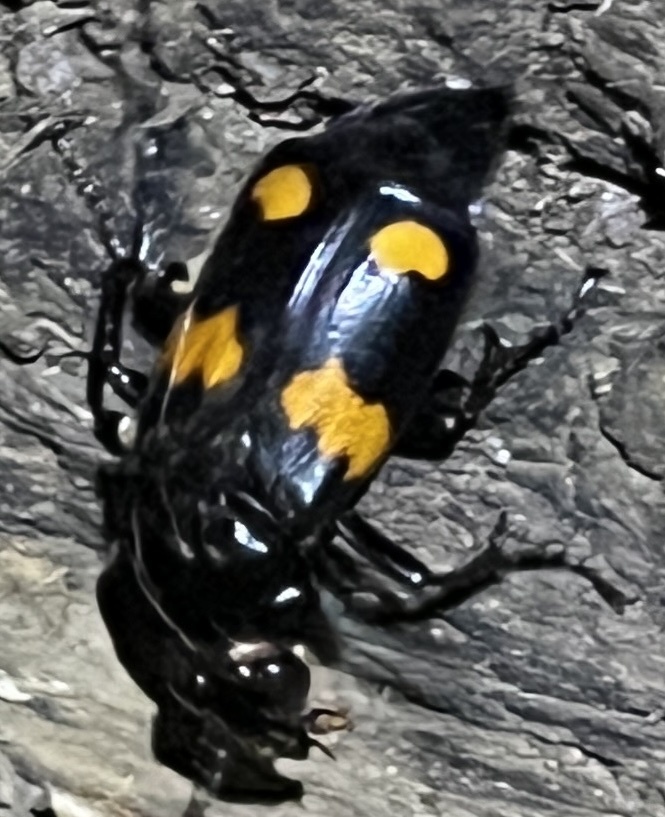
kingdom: Animalia
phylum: Arthropoda
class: Insecta
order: Coleoptera
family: Staphylinidae
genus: Nicrophorus
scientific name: Nicrophorus orbicollis
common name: Roundneck sexton beetle
